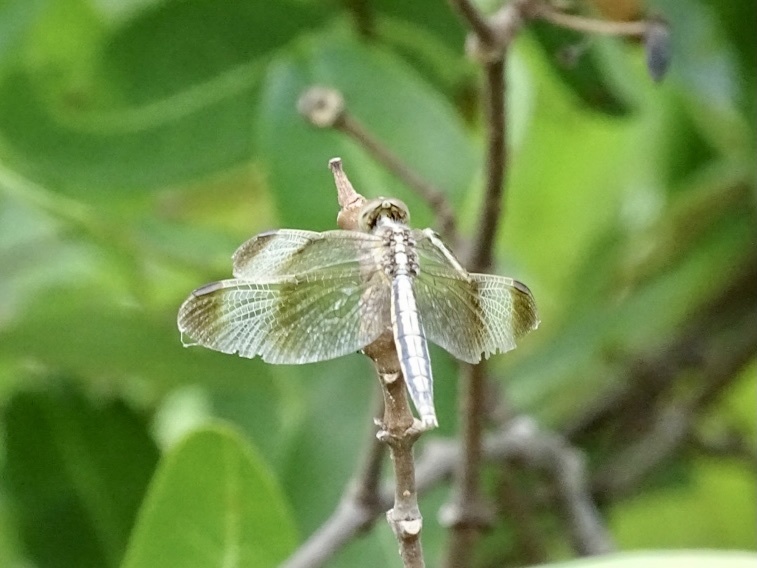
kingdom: Animalia
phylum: Arthropoda
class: Insecta
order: Odonata
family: Libellulidae
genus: Neurothemis
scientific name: Neurothemis tullia
